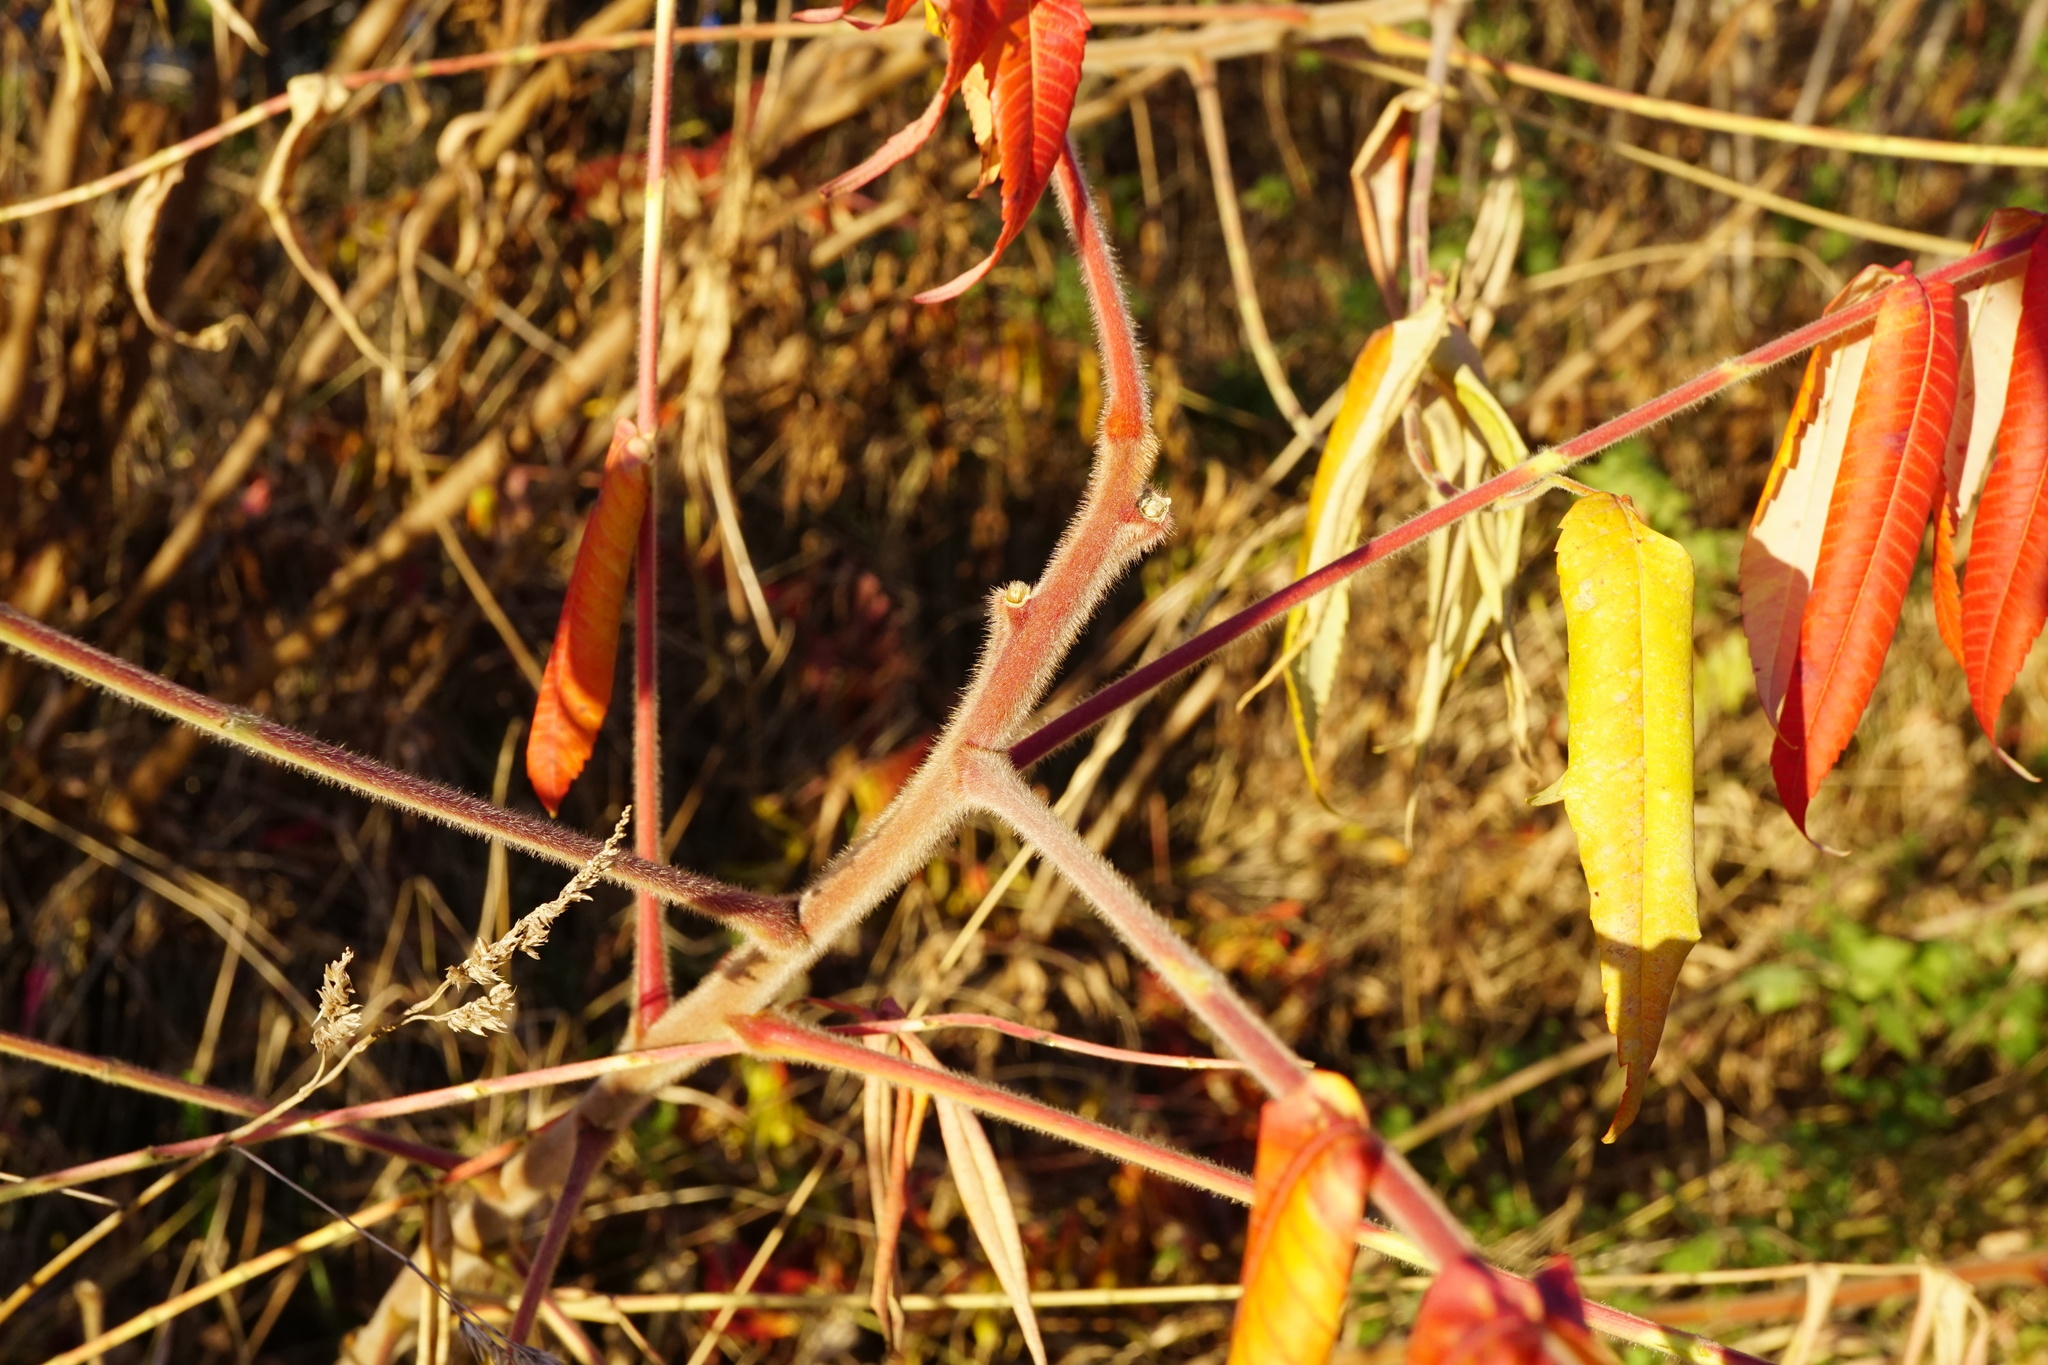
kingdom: Plantae
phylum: Tracheophyta
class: Magnoliopsida
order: Sapindales
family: Anacardiaceae
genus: Rhus
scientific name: Rhus typhina
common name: Staghorn sumac
